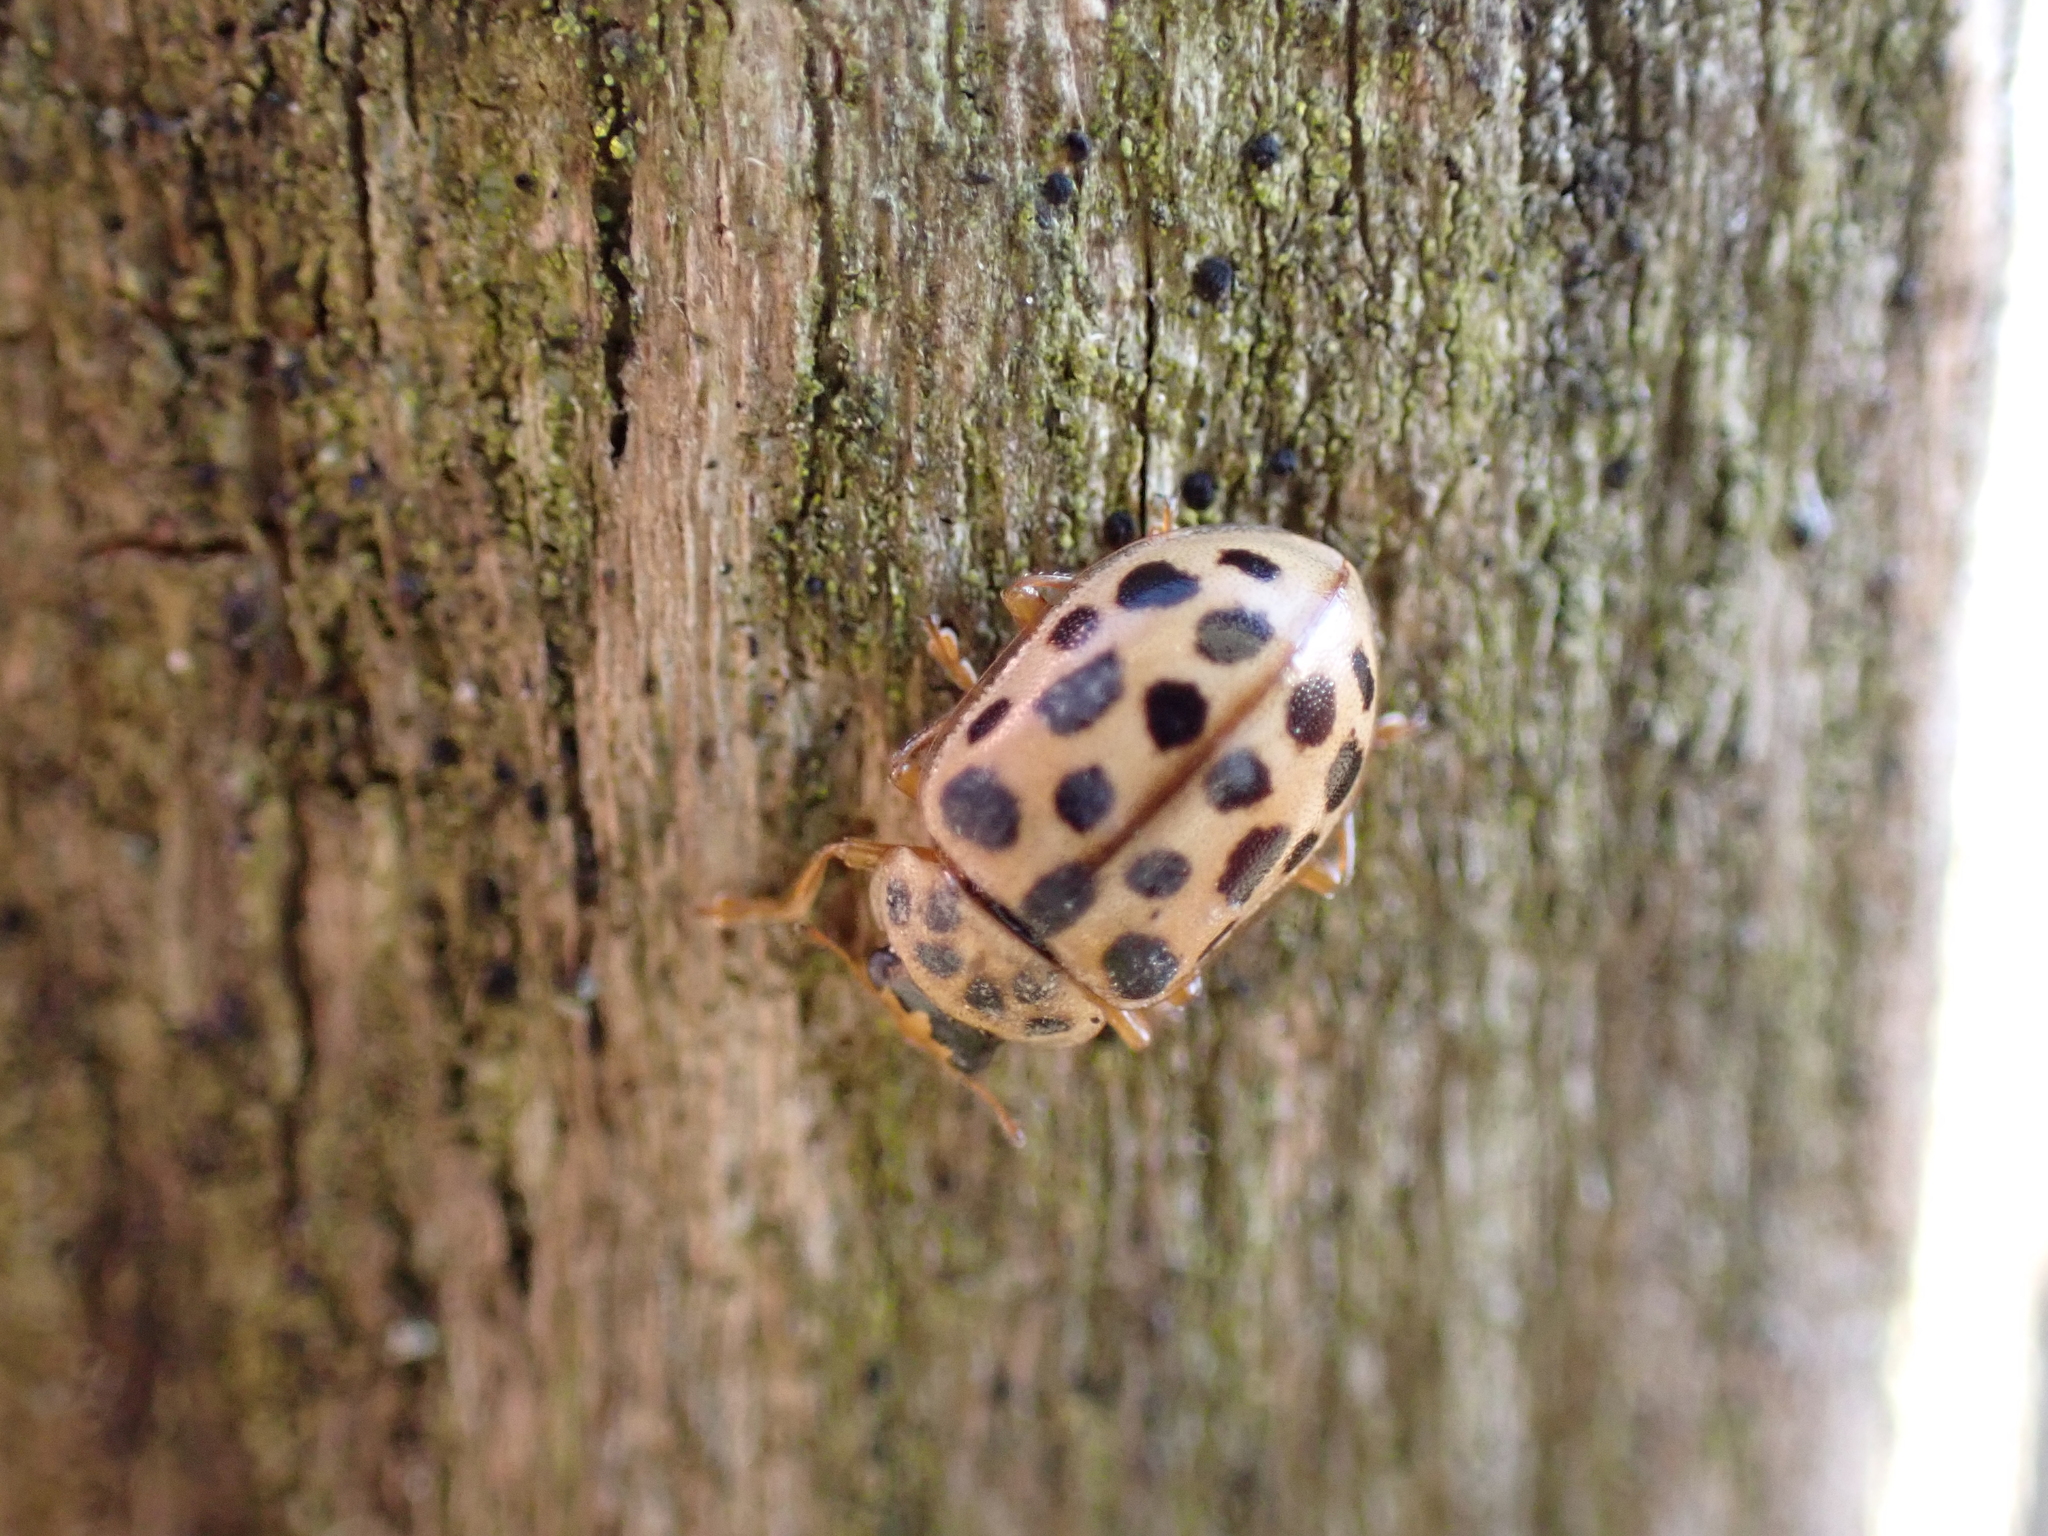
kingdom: Animalia
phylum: Arthropoda
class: Insecta
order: Coleoptera
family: Coccinellidae
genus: Anisosticta
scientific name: Anisosticta novemdecimpunctata
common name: Water ladybird
